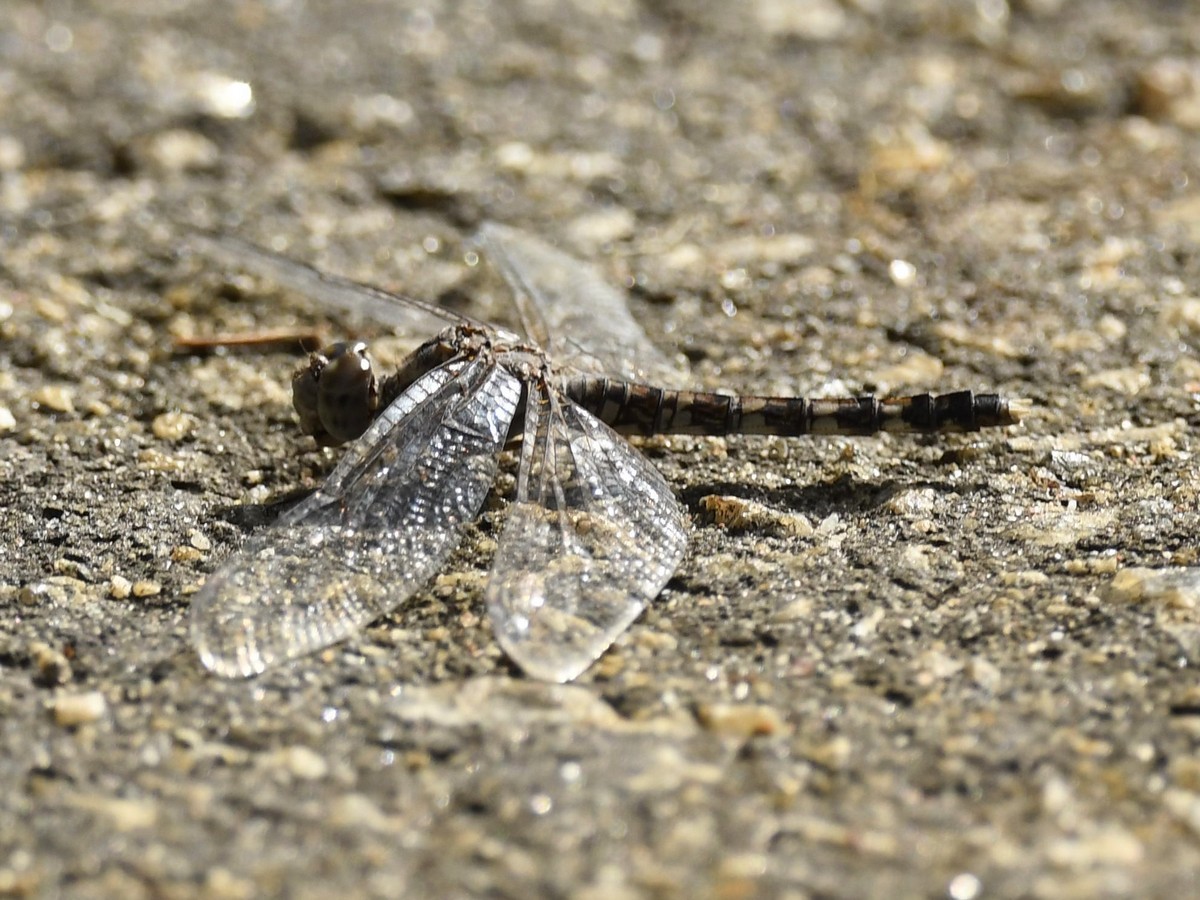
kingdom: Animalia
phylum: Arthropoda
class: Insecta
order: Odonata
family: Libellulidae
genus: Bradinopyga
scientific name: Bradinopyga geminata
